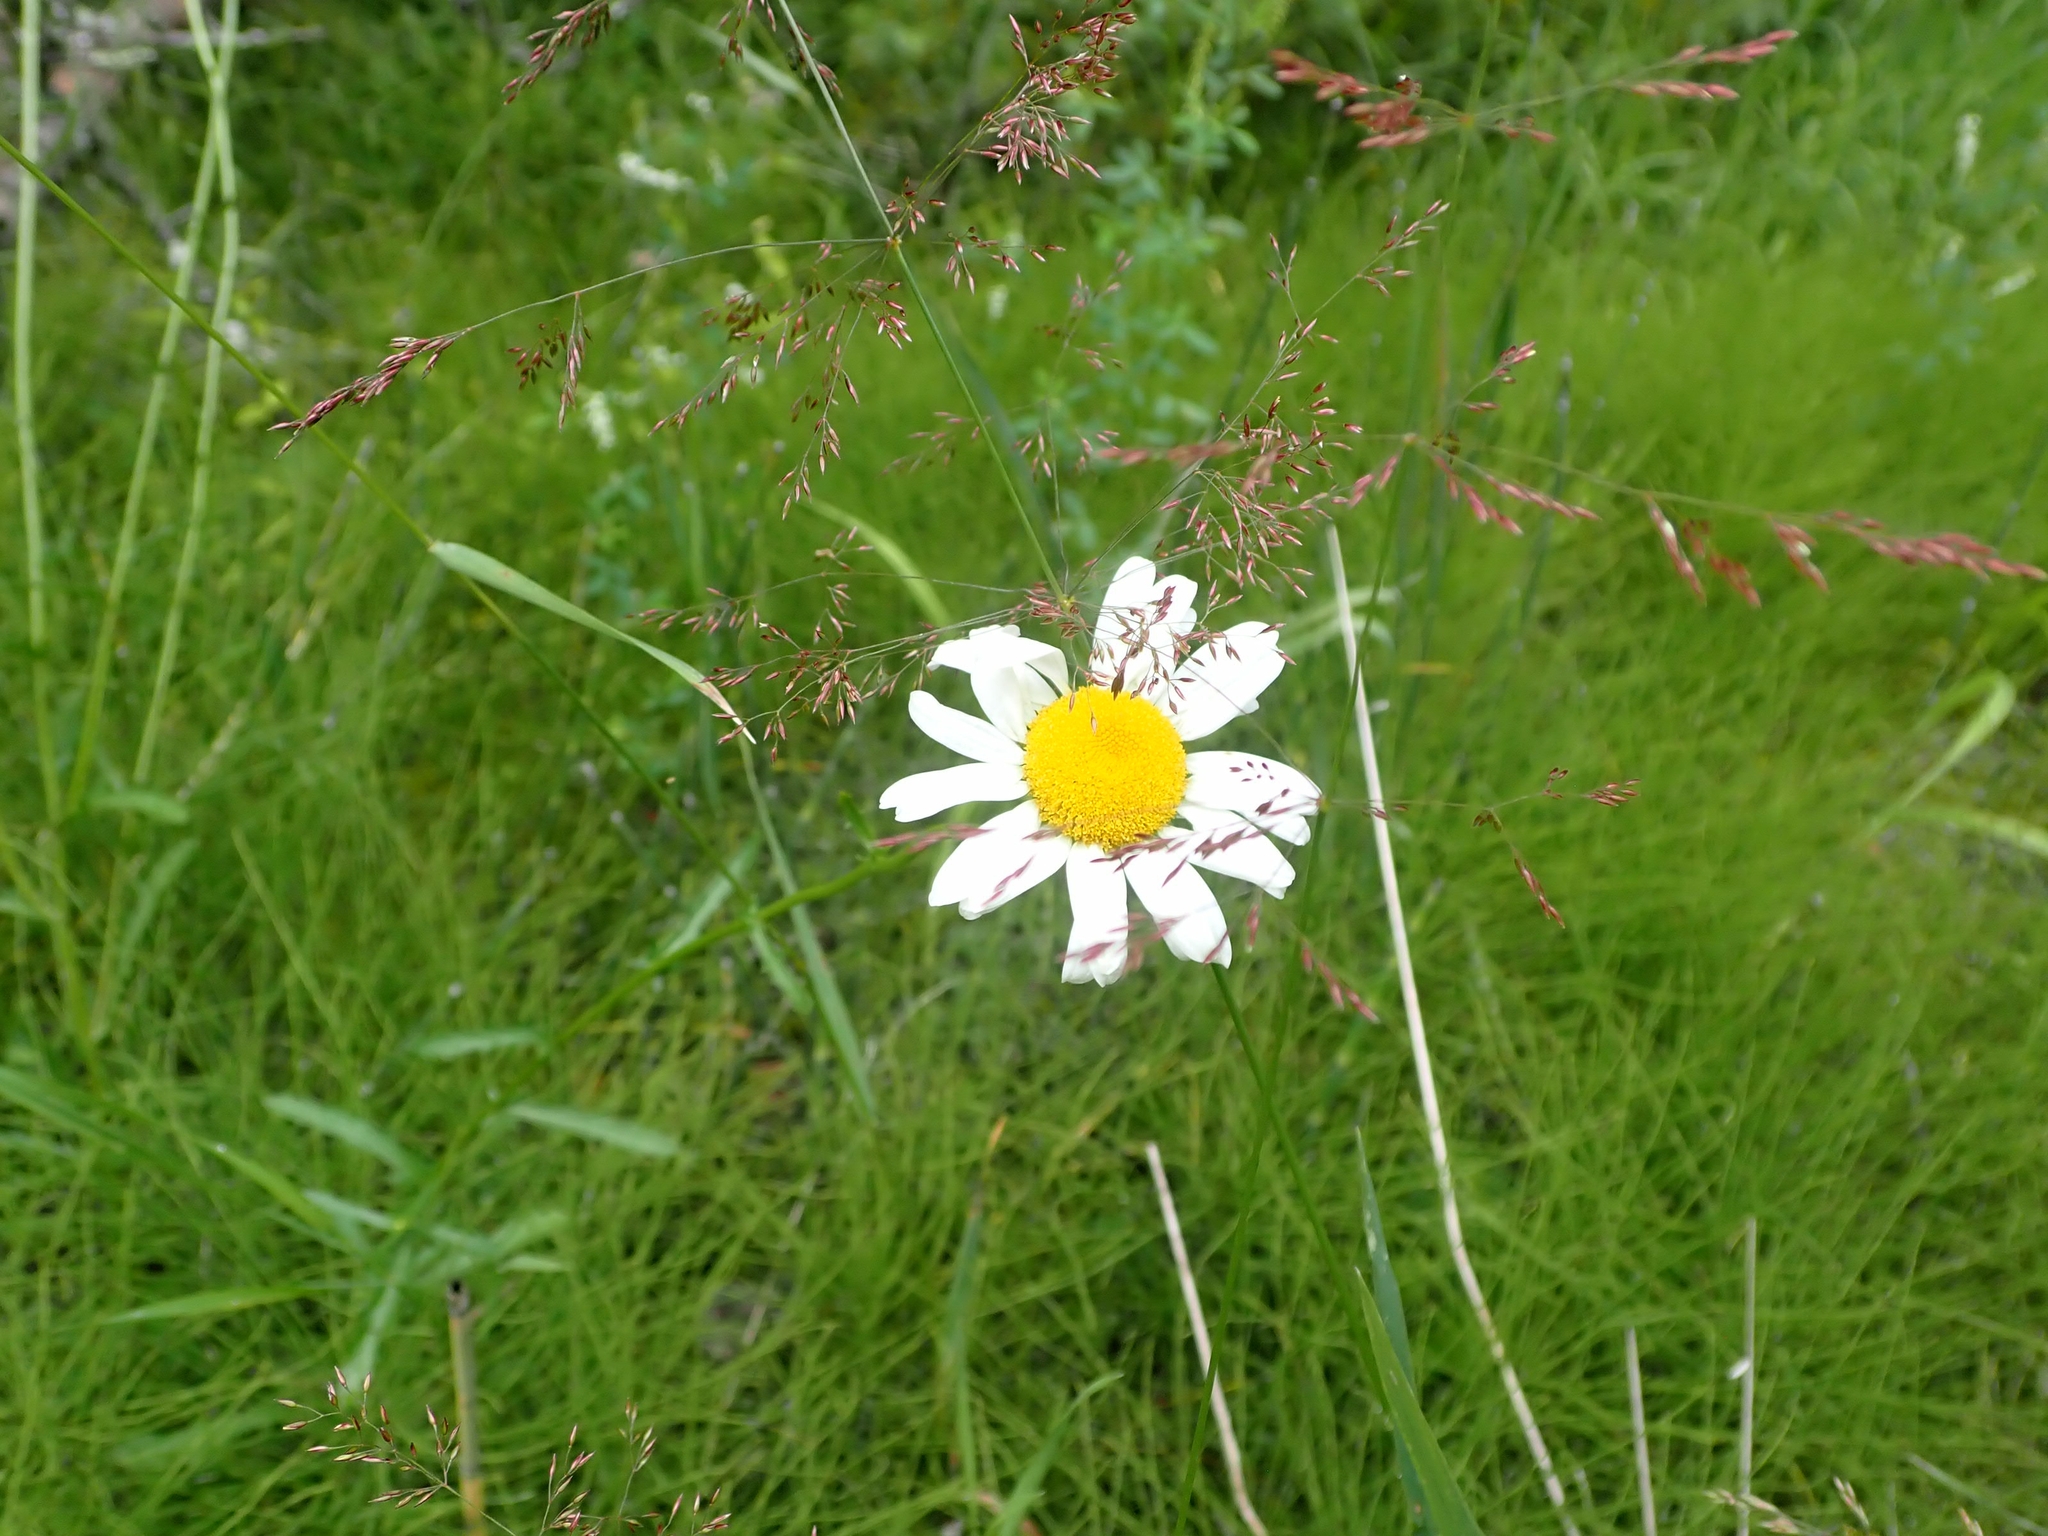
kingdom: Plantae
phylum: Tracheophyta
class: Magnoliopsida
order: Asterales
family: Asteraceae
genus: Leucanthemum
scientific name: Leucanthemum vulgare
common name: Oxeye daisy
